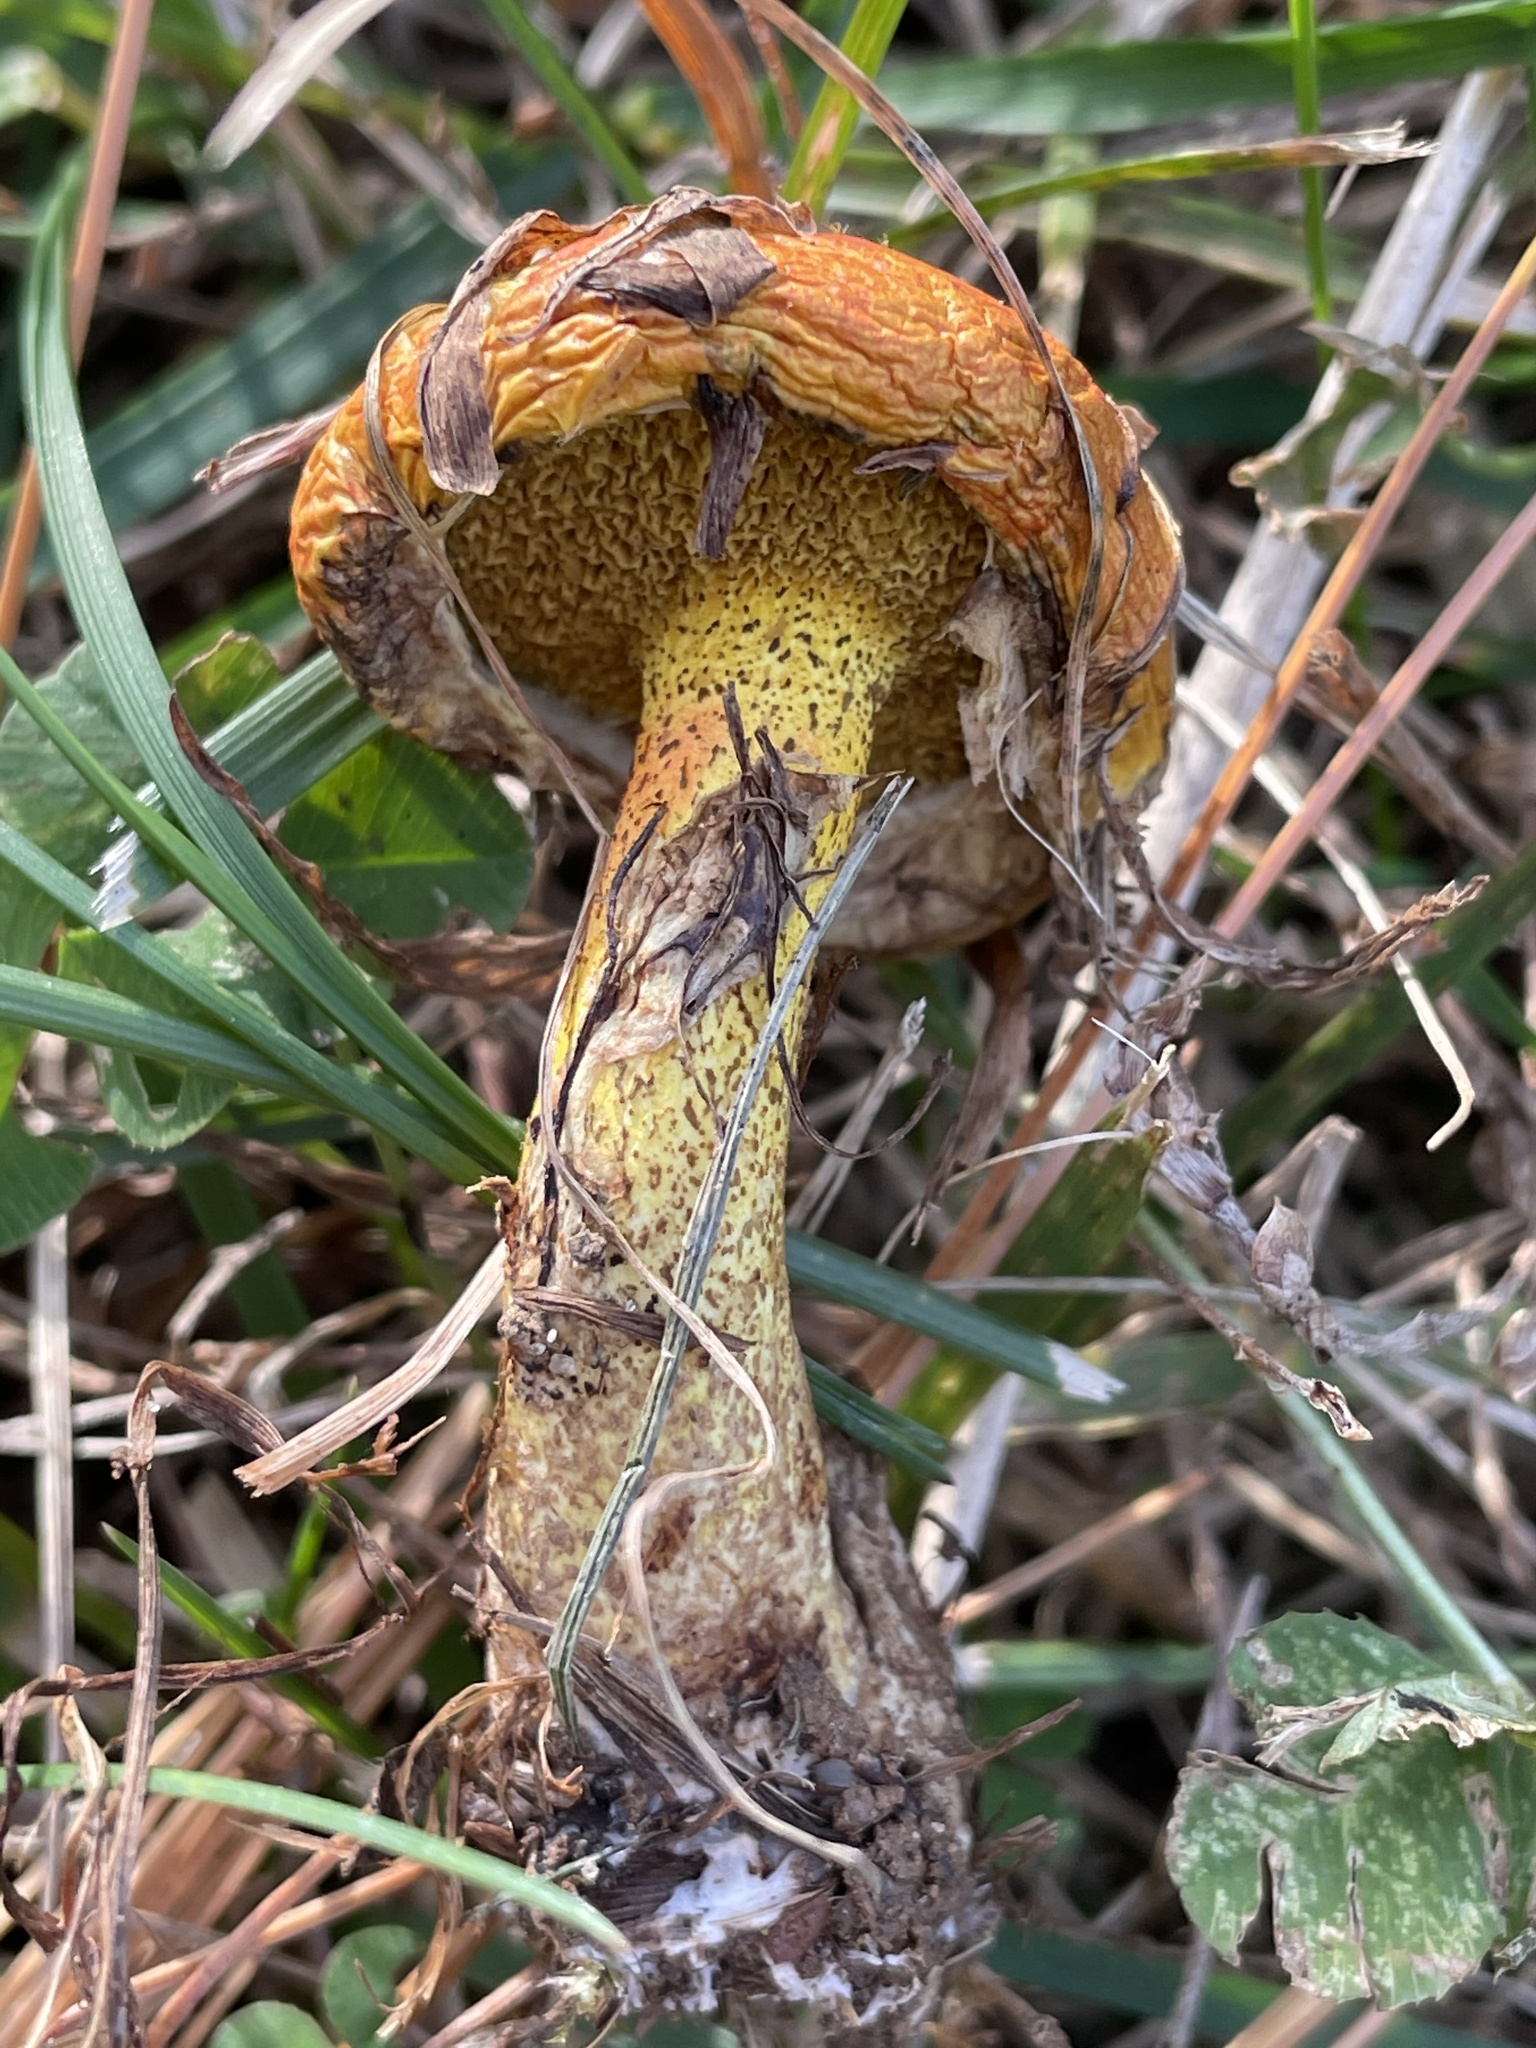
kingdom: Fungi
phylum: Basidiomycota
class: Agaricomycetes
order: Boletales
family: Suillaceae
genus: Suillus
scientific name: Suillus americanus
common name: Chicken fat mushroom
